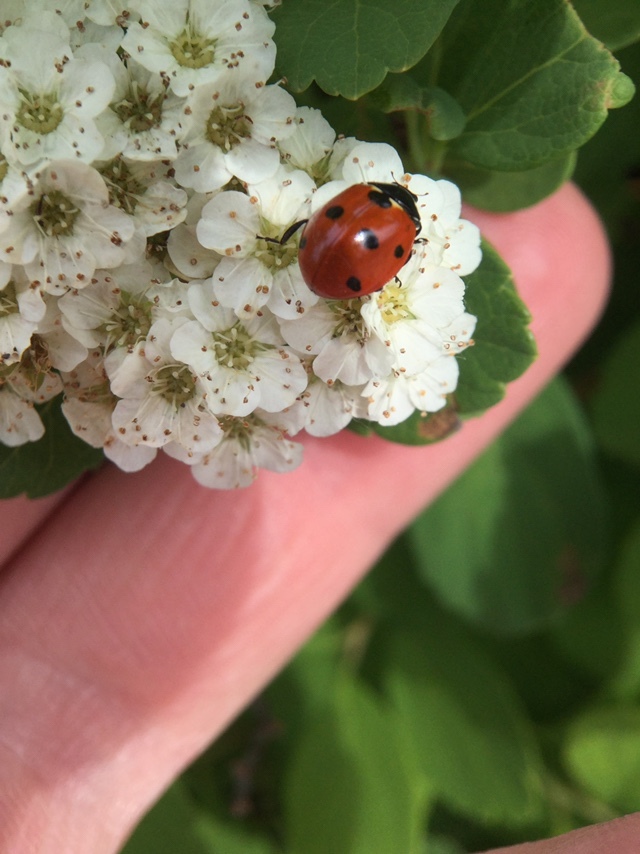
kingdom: Animalia
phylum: Arthropoda
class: Insecta
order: Coleoptera
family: Coccinellidae
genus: Coccinella
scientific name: Coccinella septempunctata
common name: Sevenspotted lady beetle
